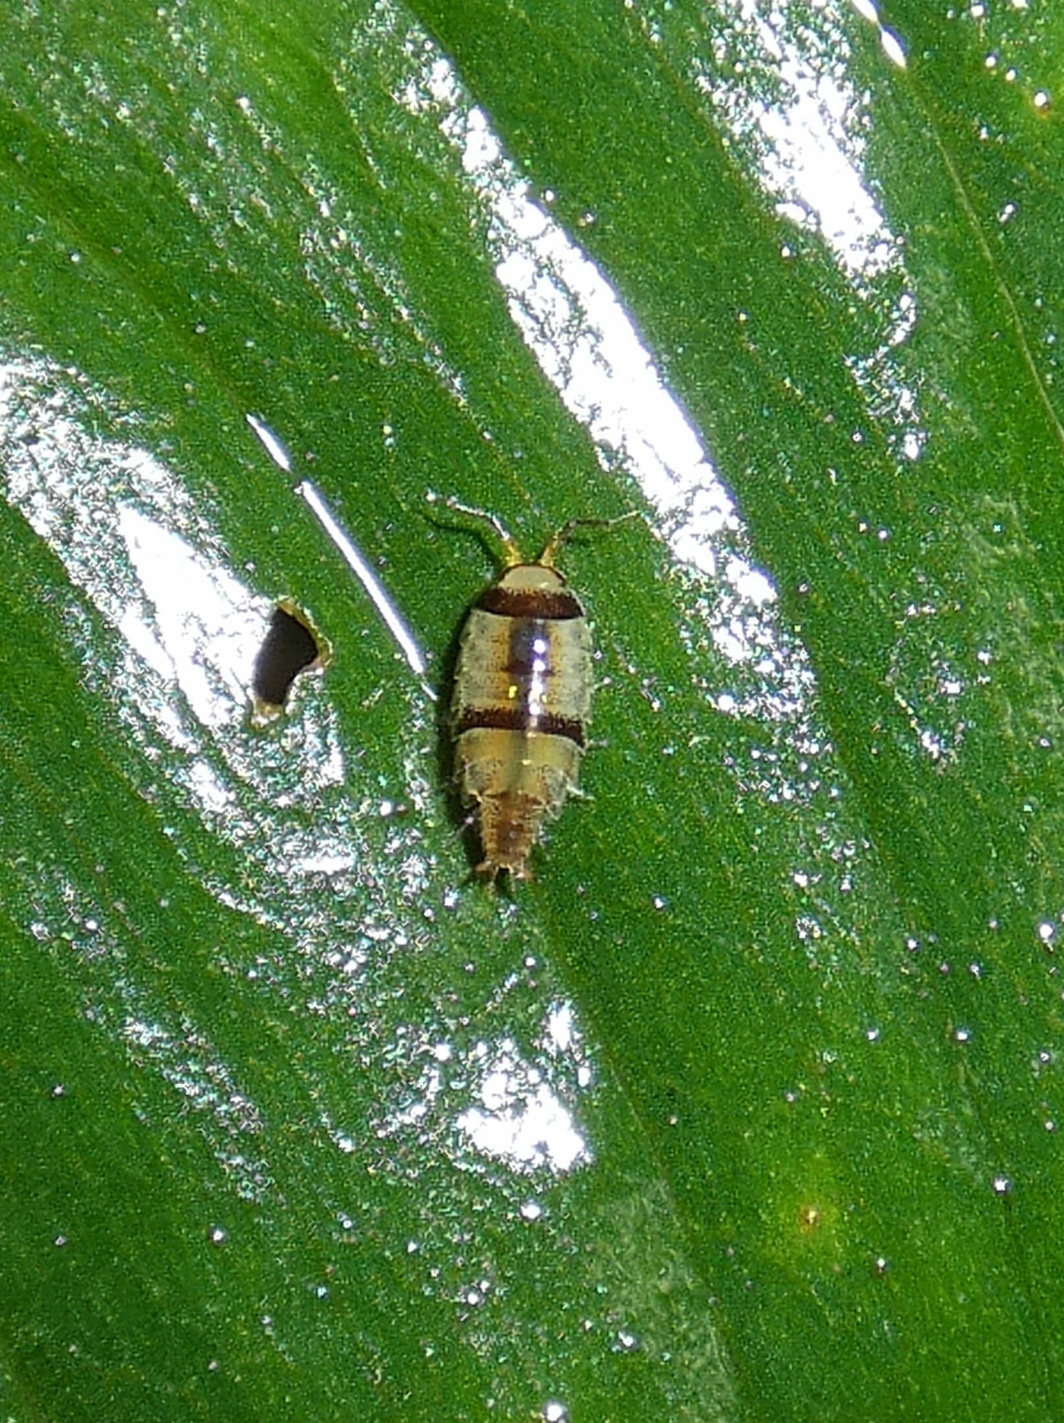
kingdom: Animalia
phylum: Arthropoda
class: Malacostraca
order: Isopoda
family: Philosciidae
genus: Ischioscia
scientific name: Ischioscia zebricolor
